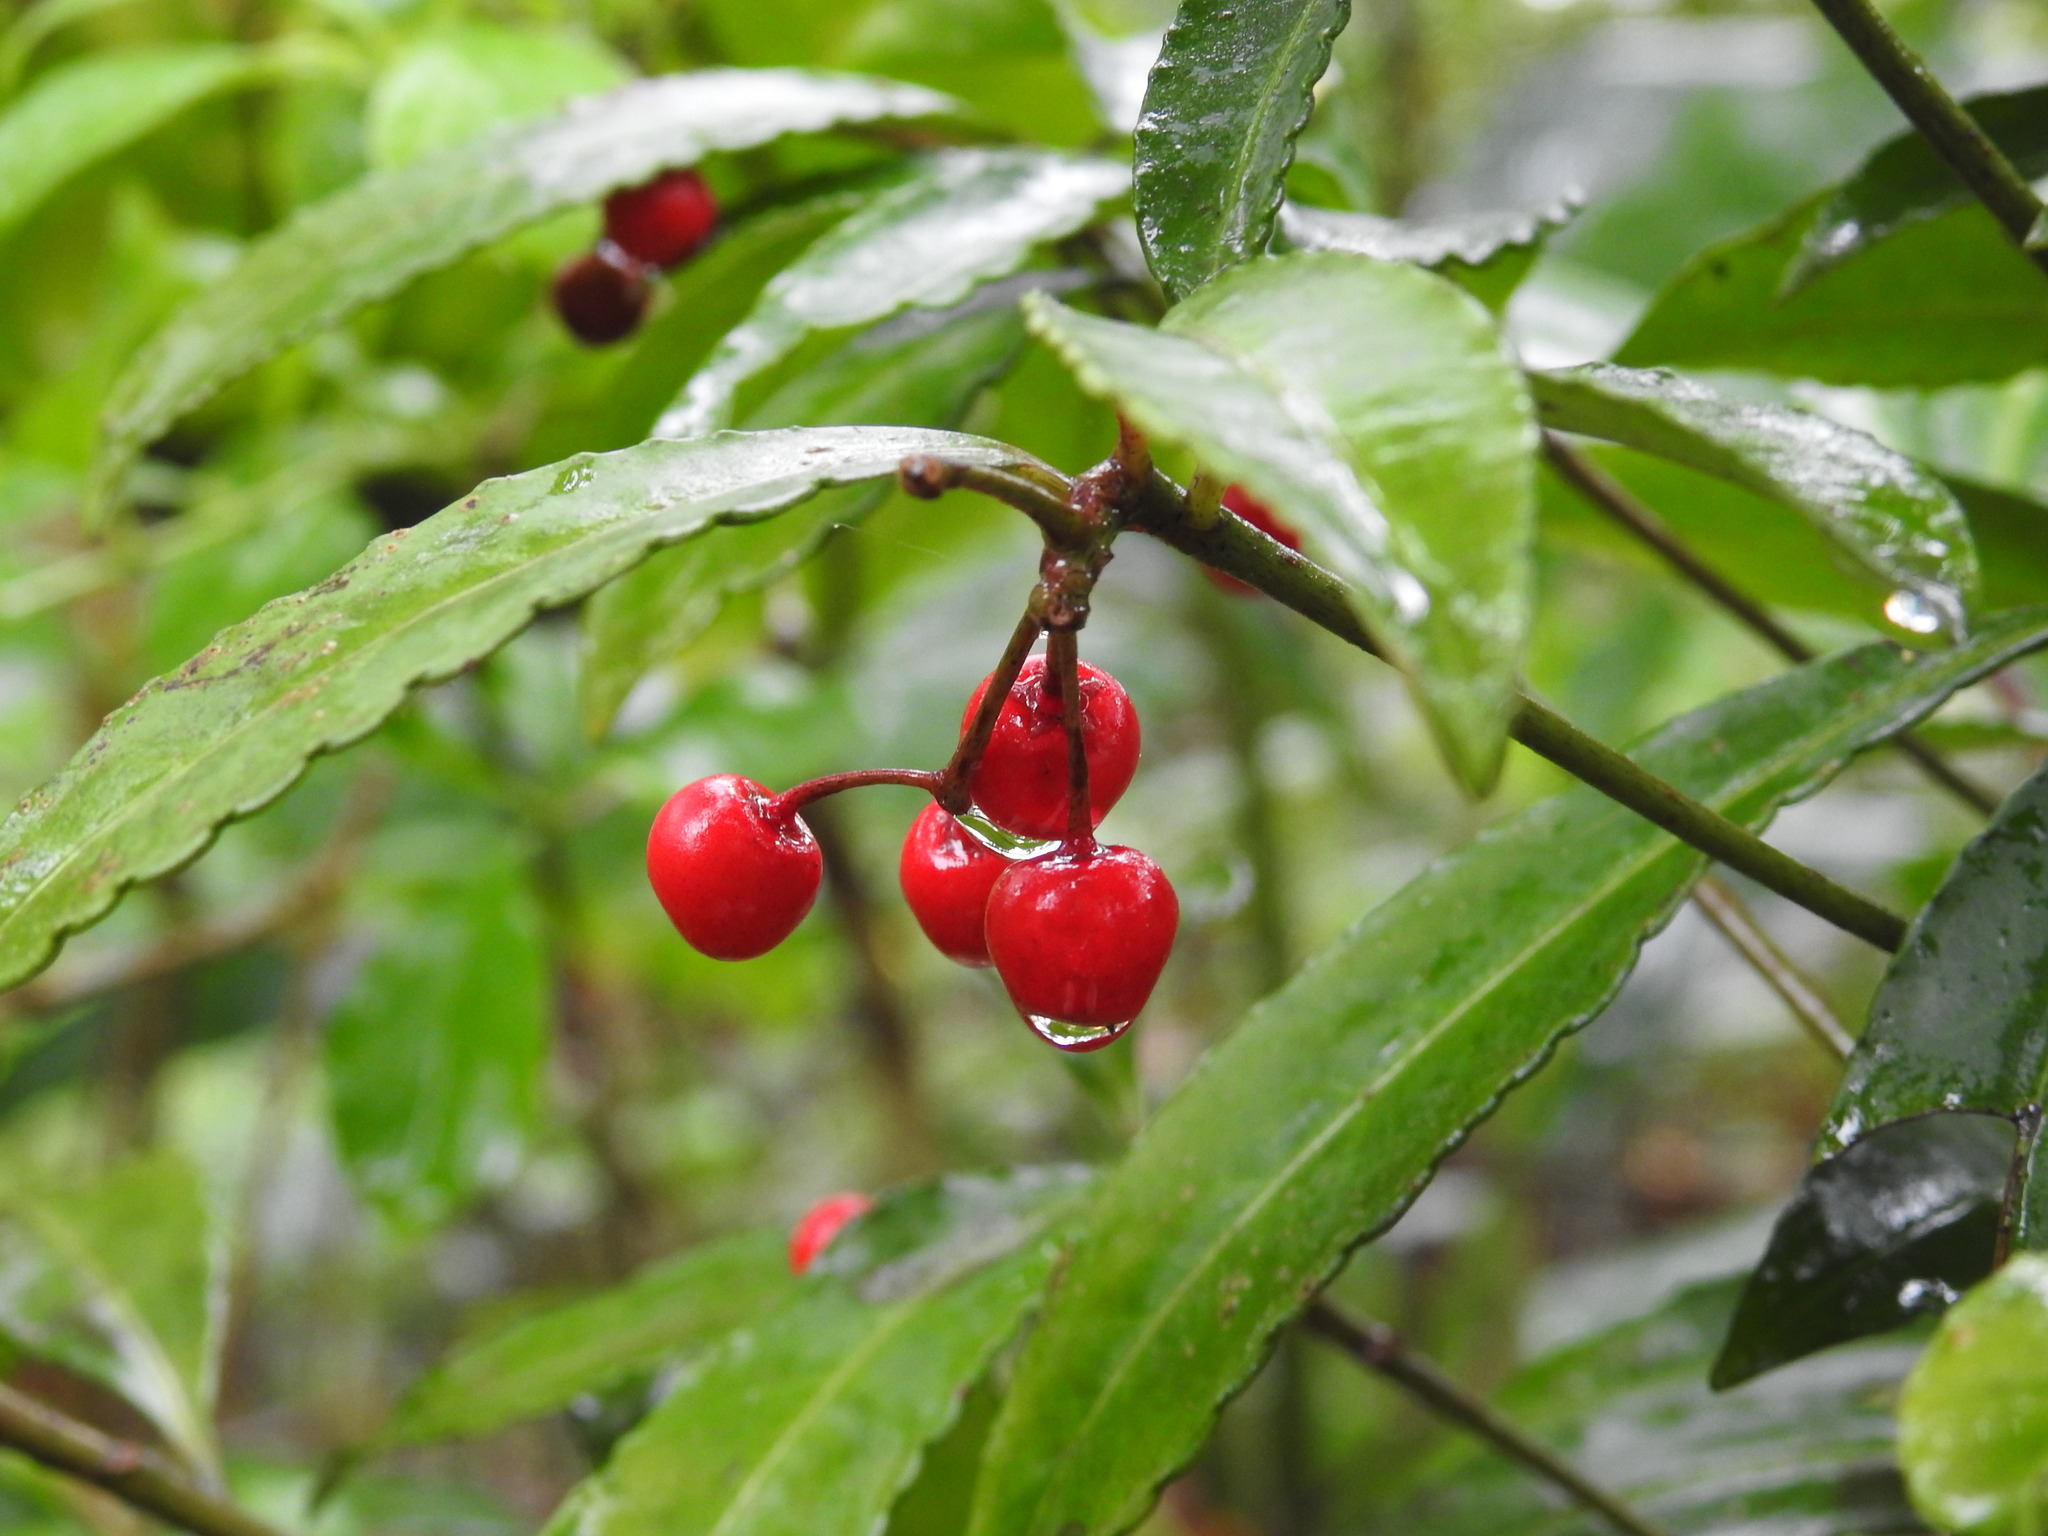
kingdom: Plantae
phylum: Tracheophyta
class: Magnoliopsida
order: Ericales
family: Primulaceae
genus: Ardisia
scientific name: Ardisia crenata
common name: Hen's eyes
